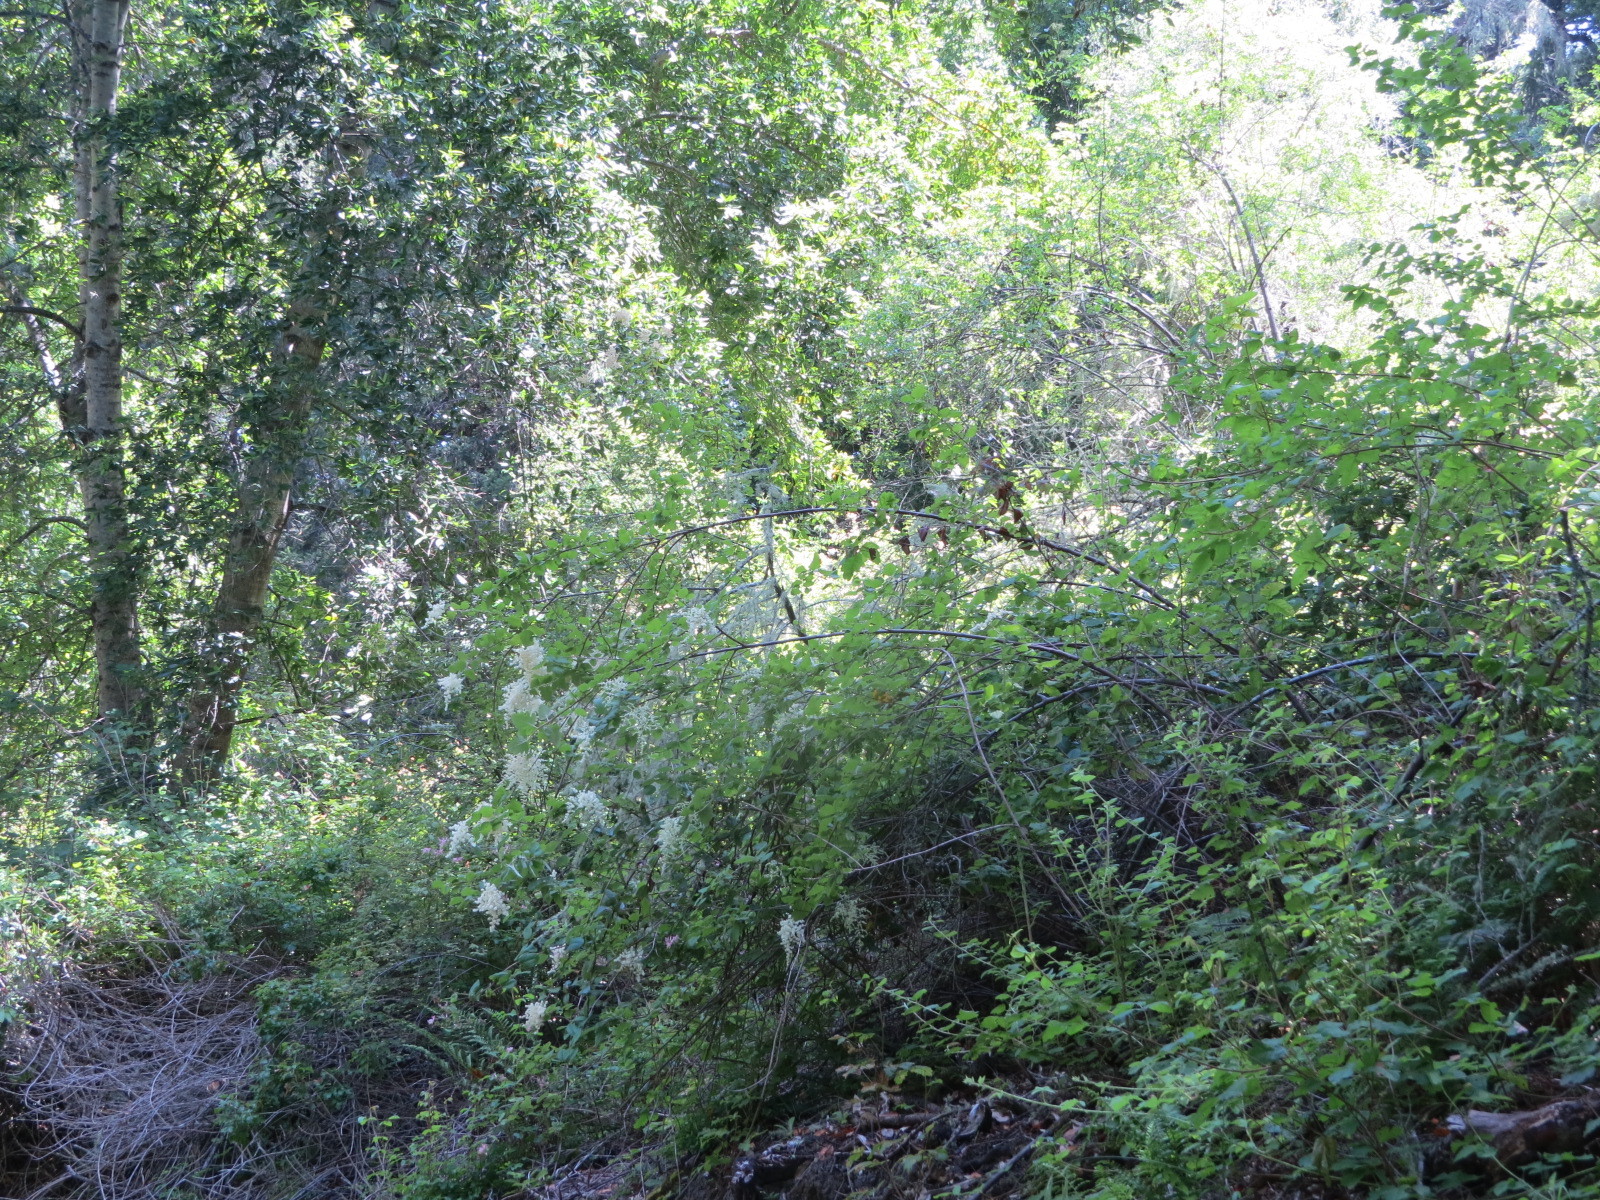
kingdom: Plantae
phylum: Tracheophyta
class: Magnoliopsida
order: Rosales
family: Rosaceae
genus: Holodiscus
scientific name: Holodiscus discolor
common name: Oceanspray
